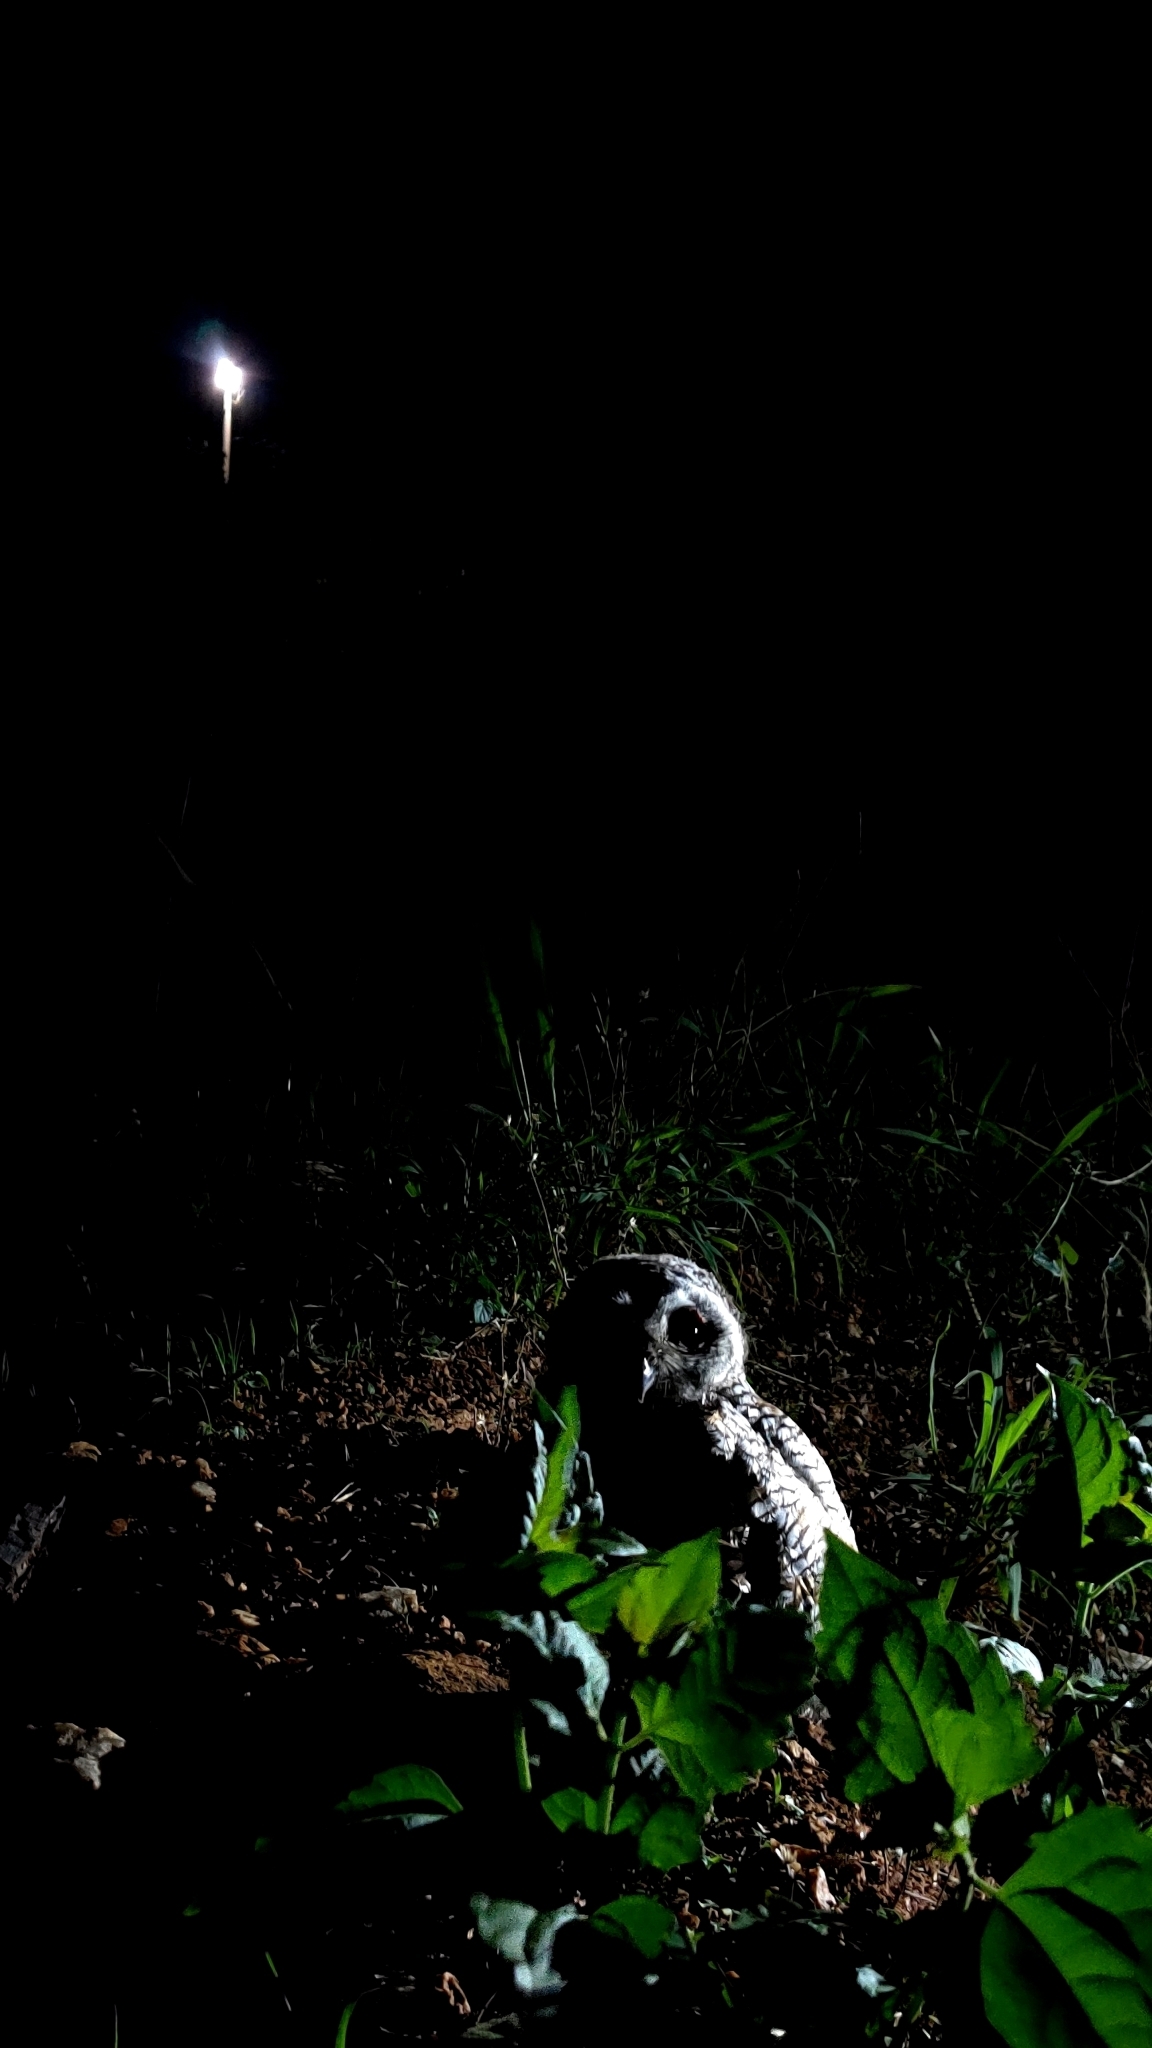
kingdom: Animalia
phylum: Chordata
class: Aves
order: Strigiformes
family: Strigidae
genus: Strix
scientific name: Strix ocellata
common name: Mottled wood owl
